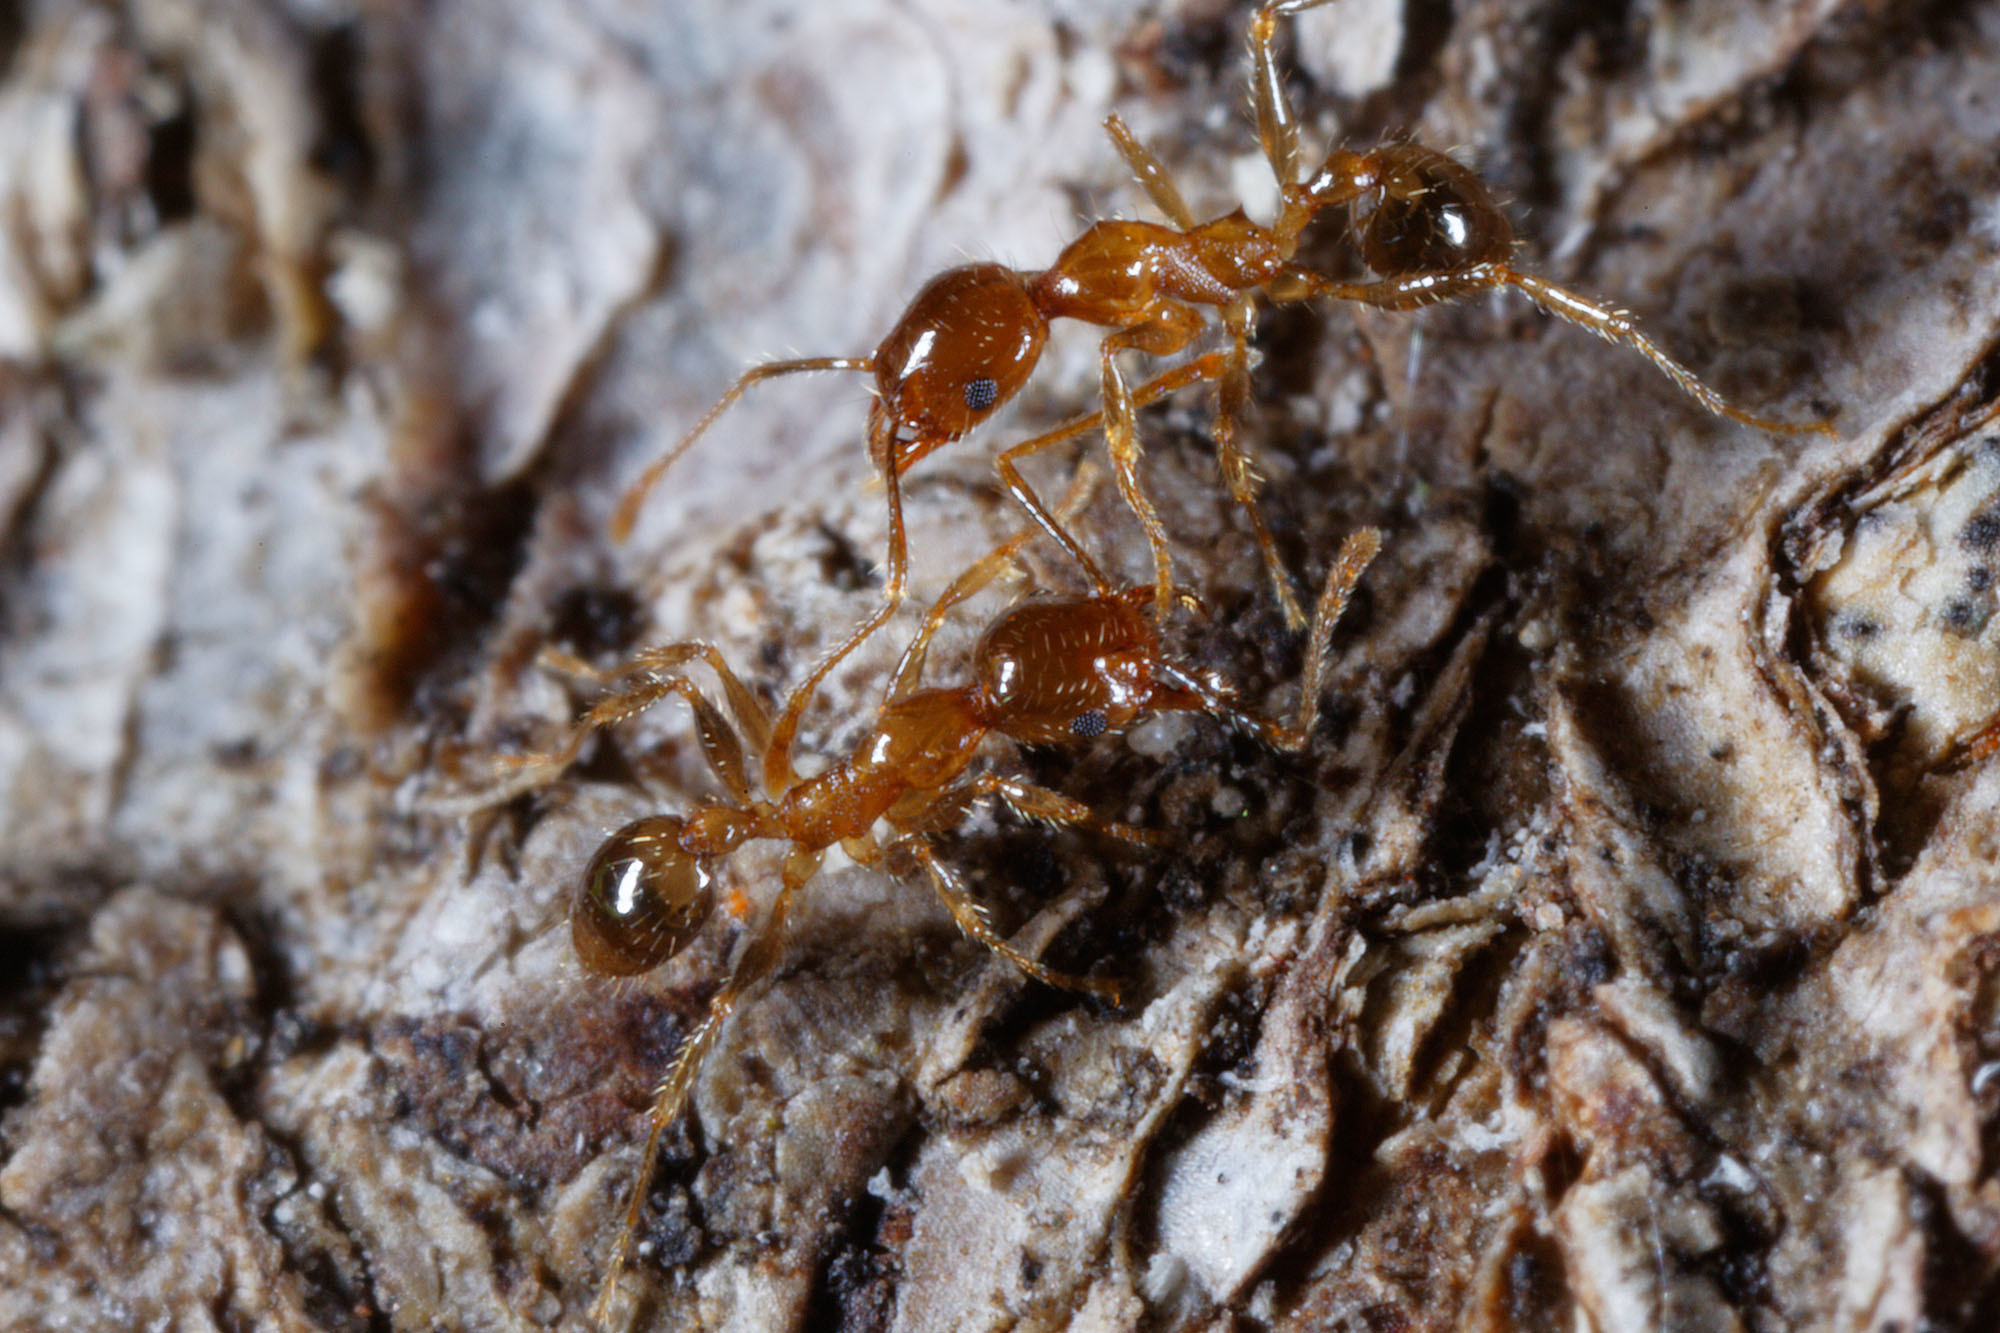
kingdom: Animalia
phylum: Arthropoda
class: Insecta
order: Hymenoptera
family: Formicidae
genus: Pheidole
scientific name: Pheidole megacephala
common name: Bigheaded ant
